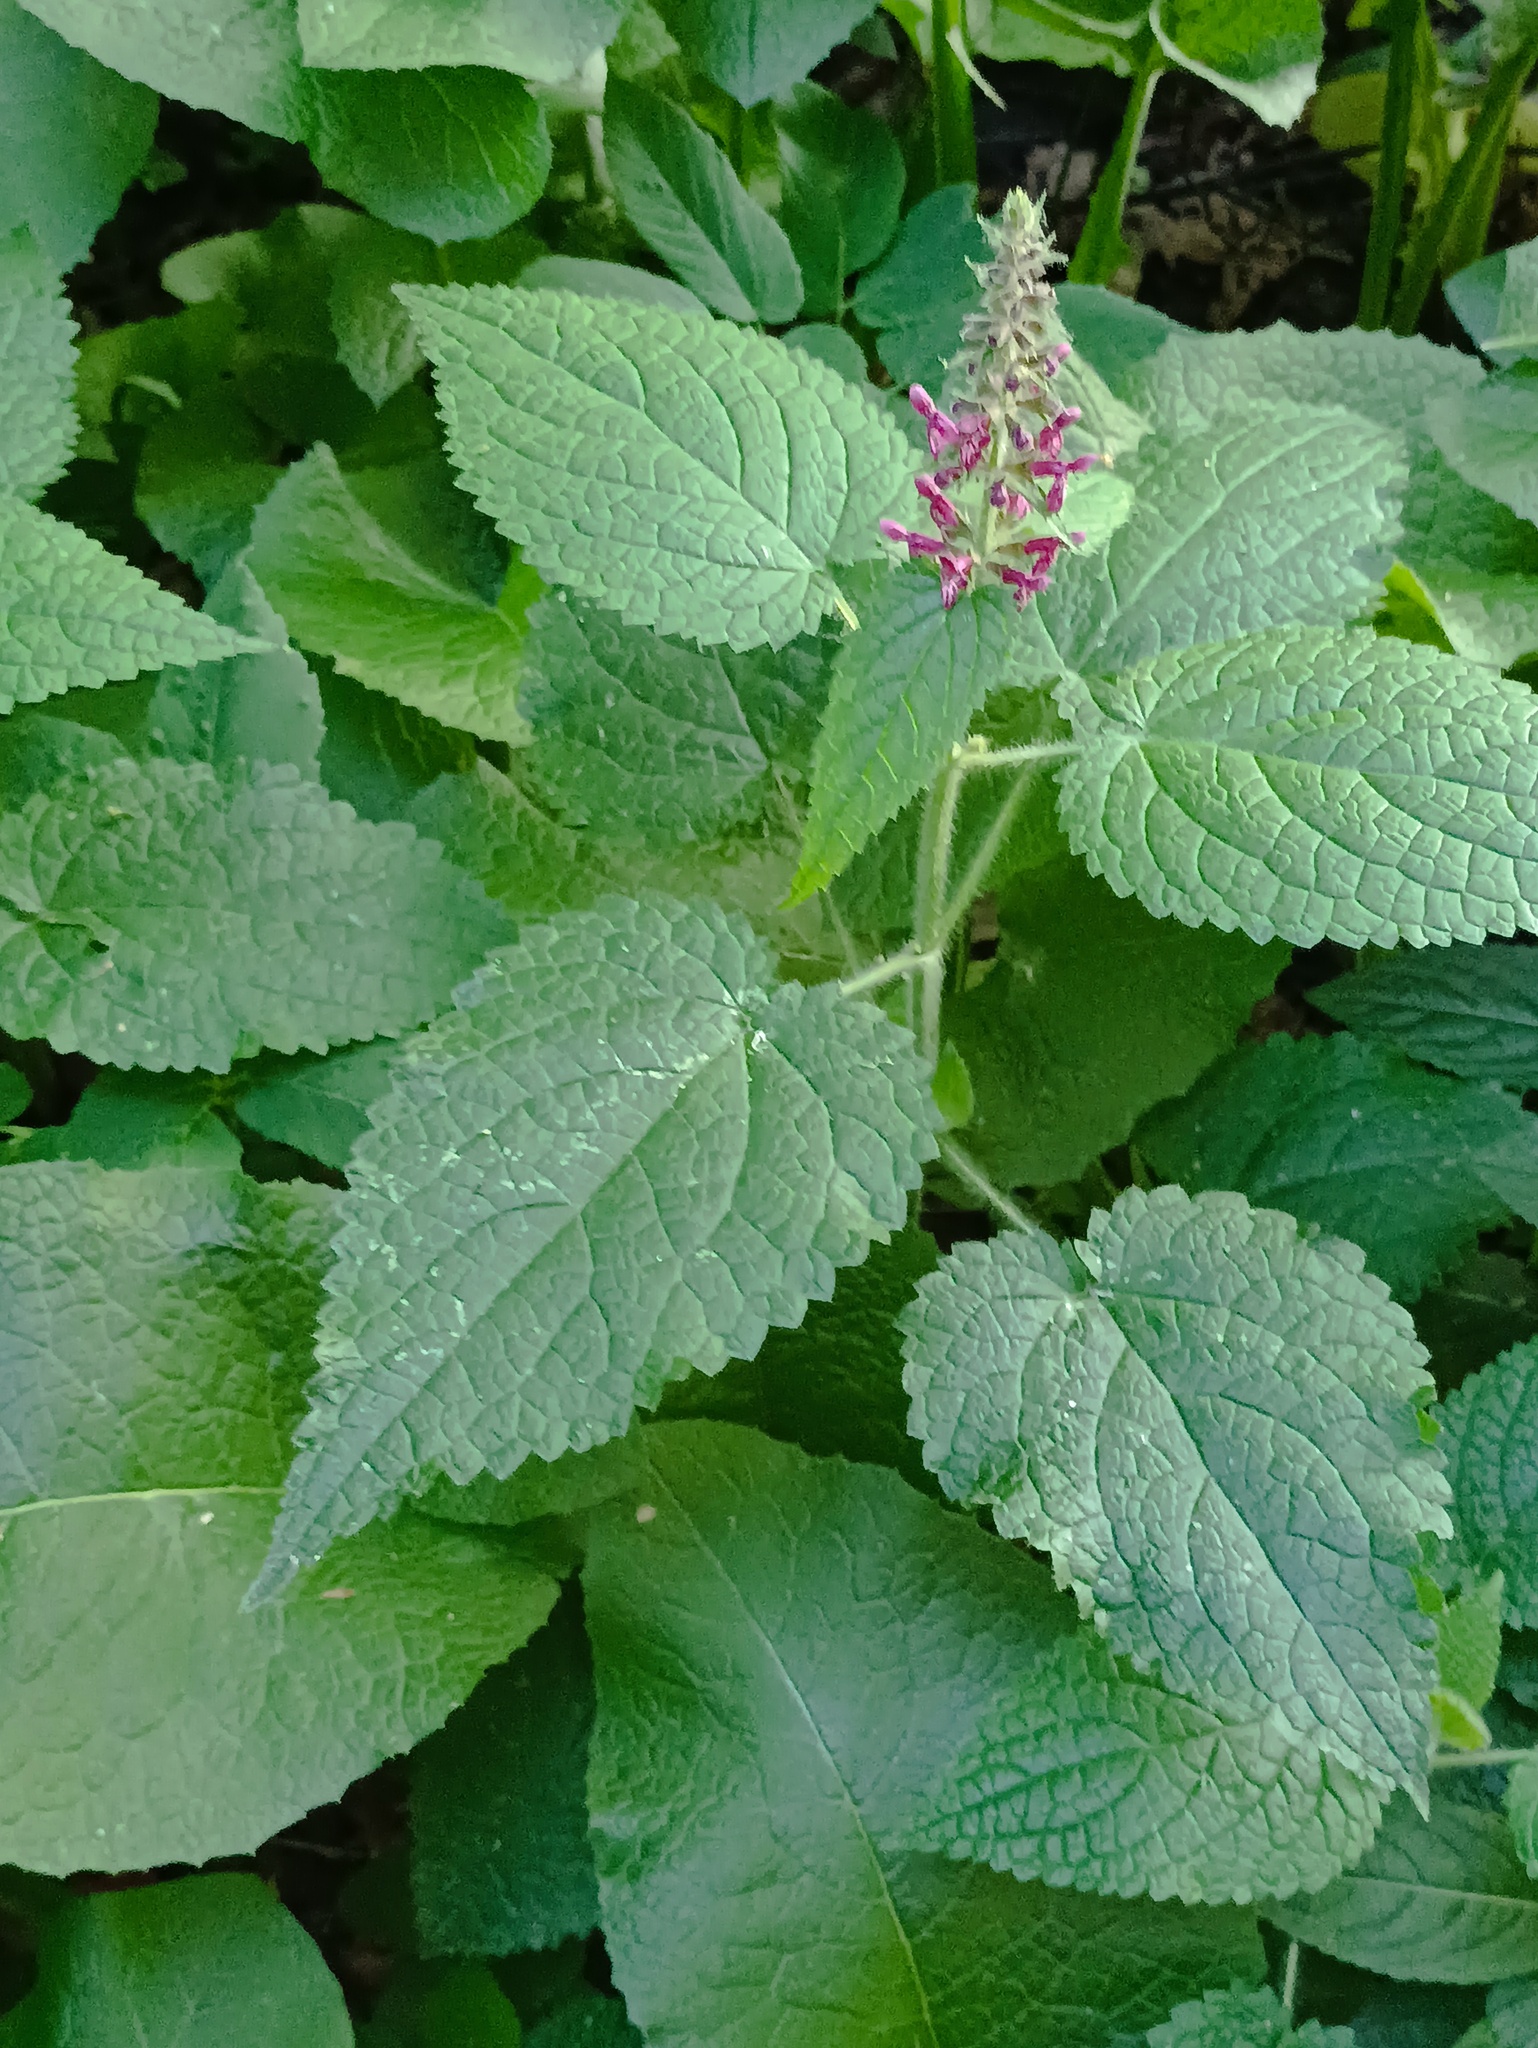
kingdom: Plantae
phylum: Tracheophyta
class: Magnoliopsida
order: Lamiales
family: Lamiaceae
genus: Stachys
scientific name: Stachys sylvatica
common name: Hedge woundwort
